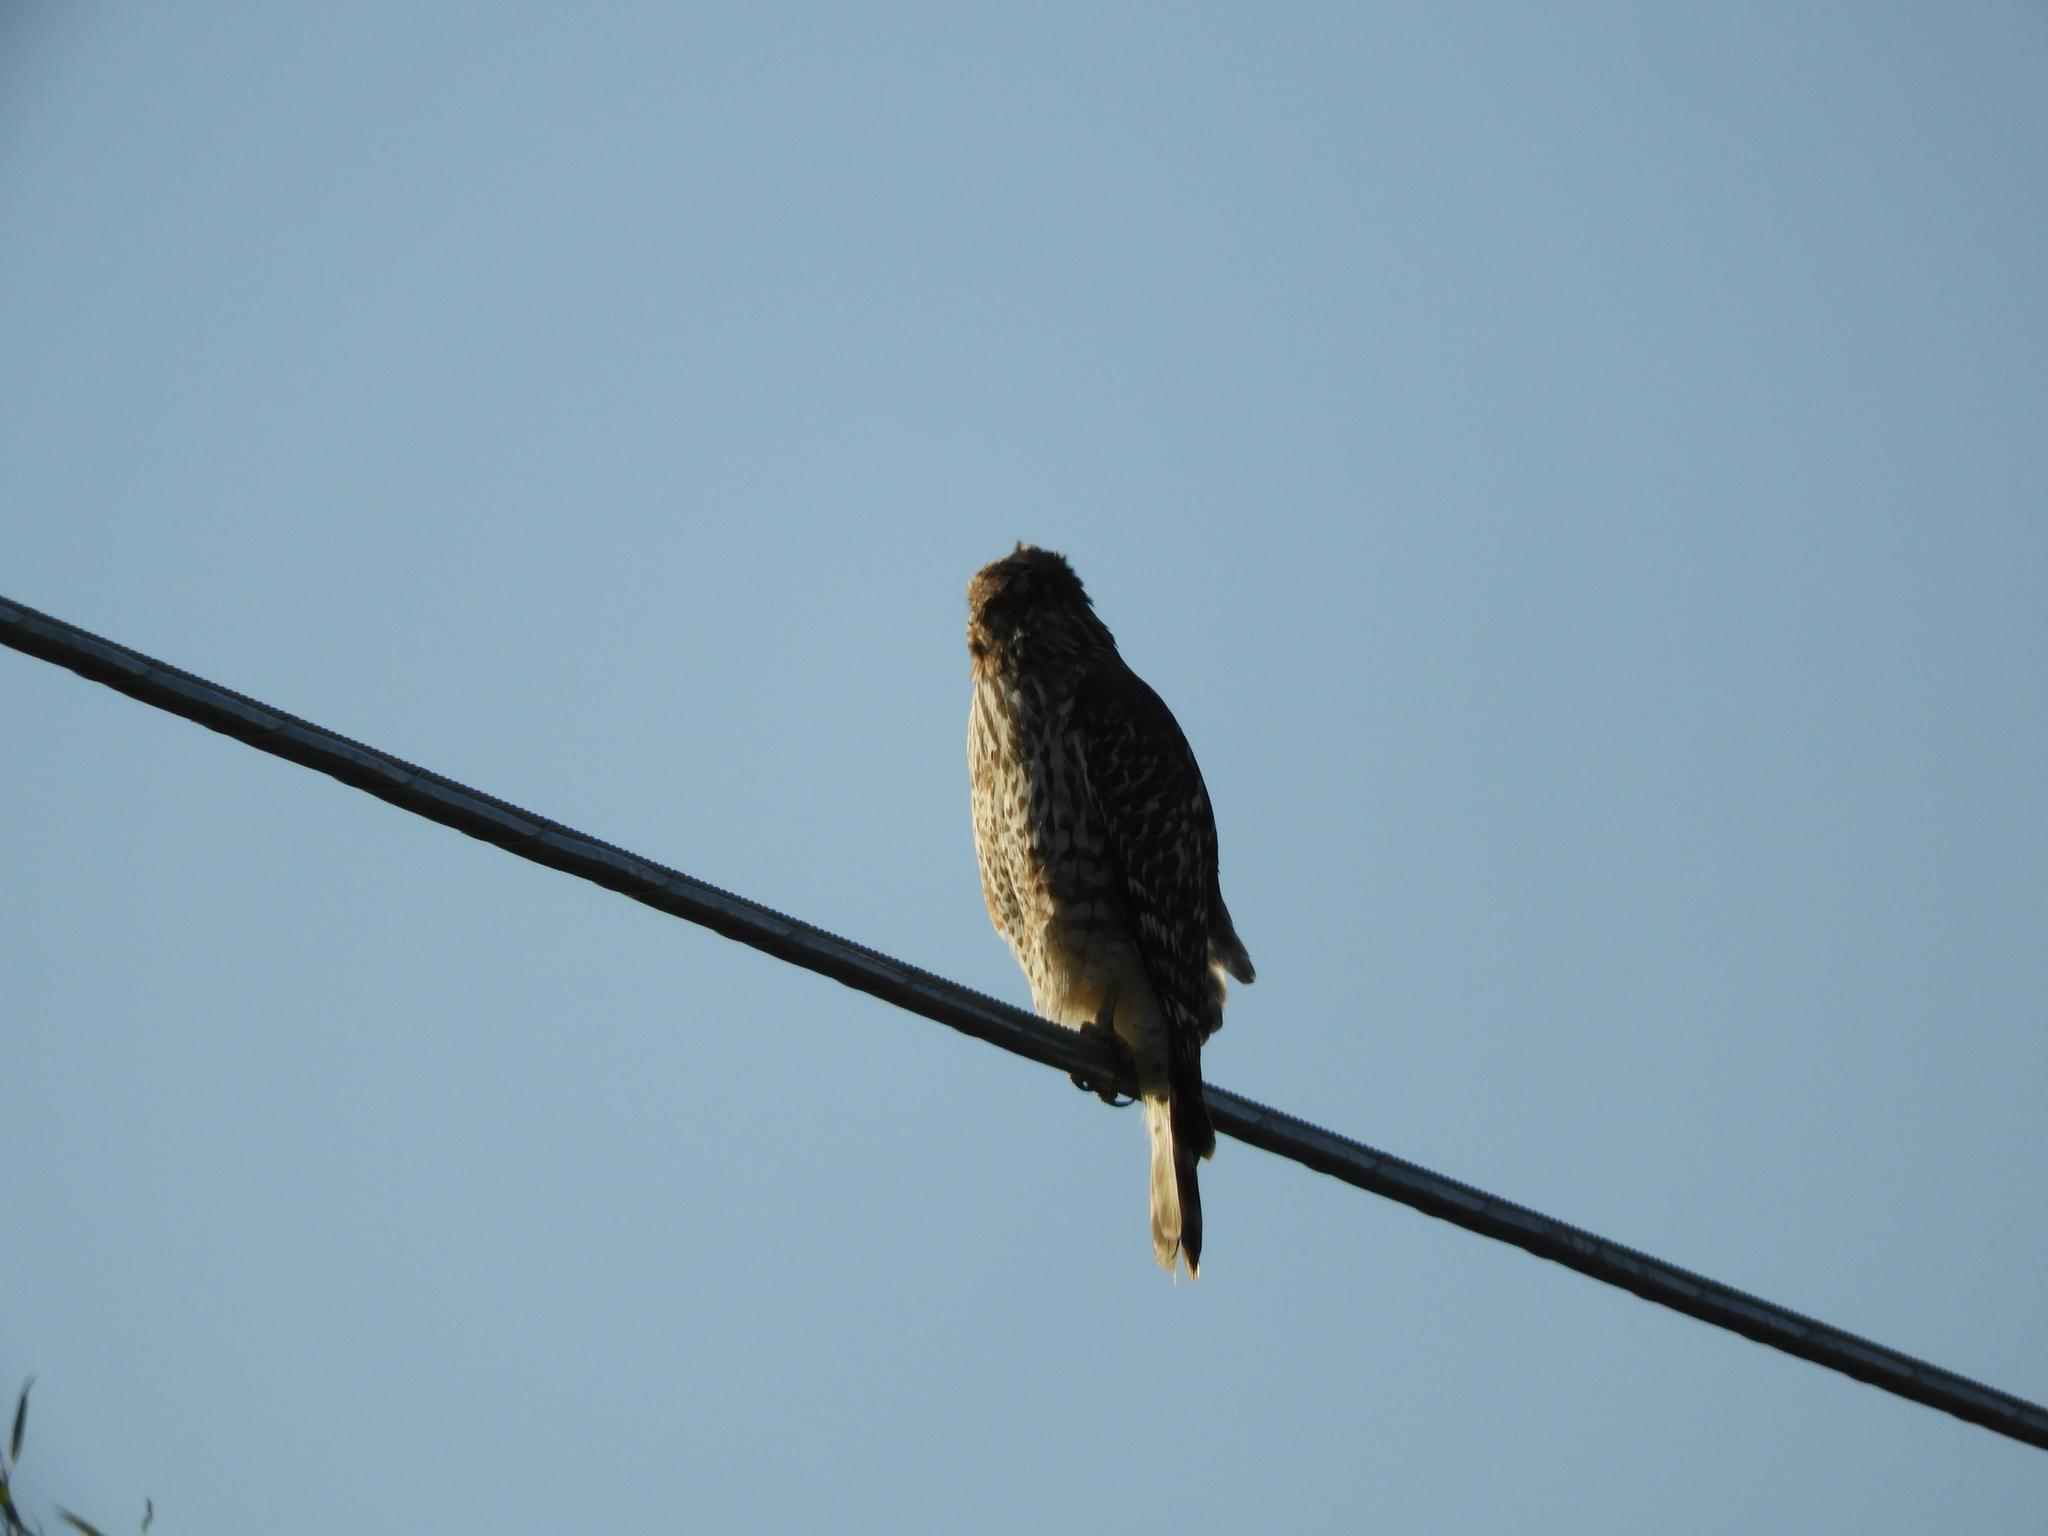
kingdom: Animalia
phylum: Chordata
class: Aves
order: Accipitriformes
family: Accipitridae
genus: Buteo
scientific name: Buteo lineatus
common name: Red-shouldered hawk
